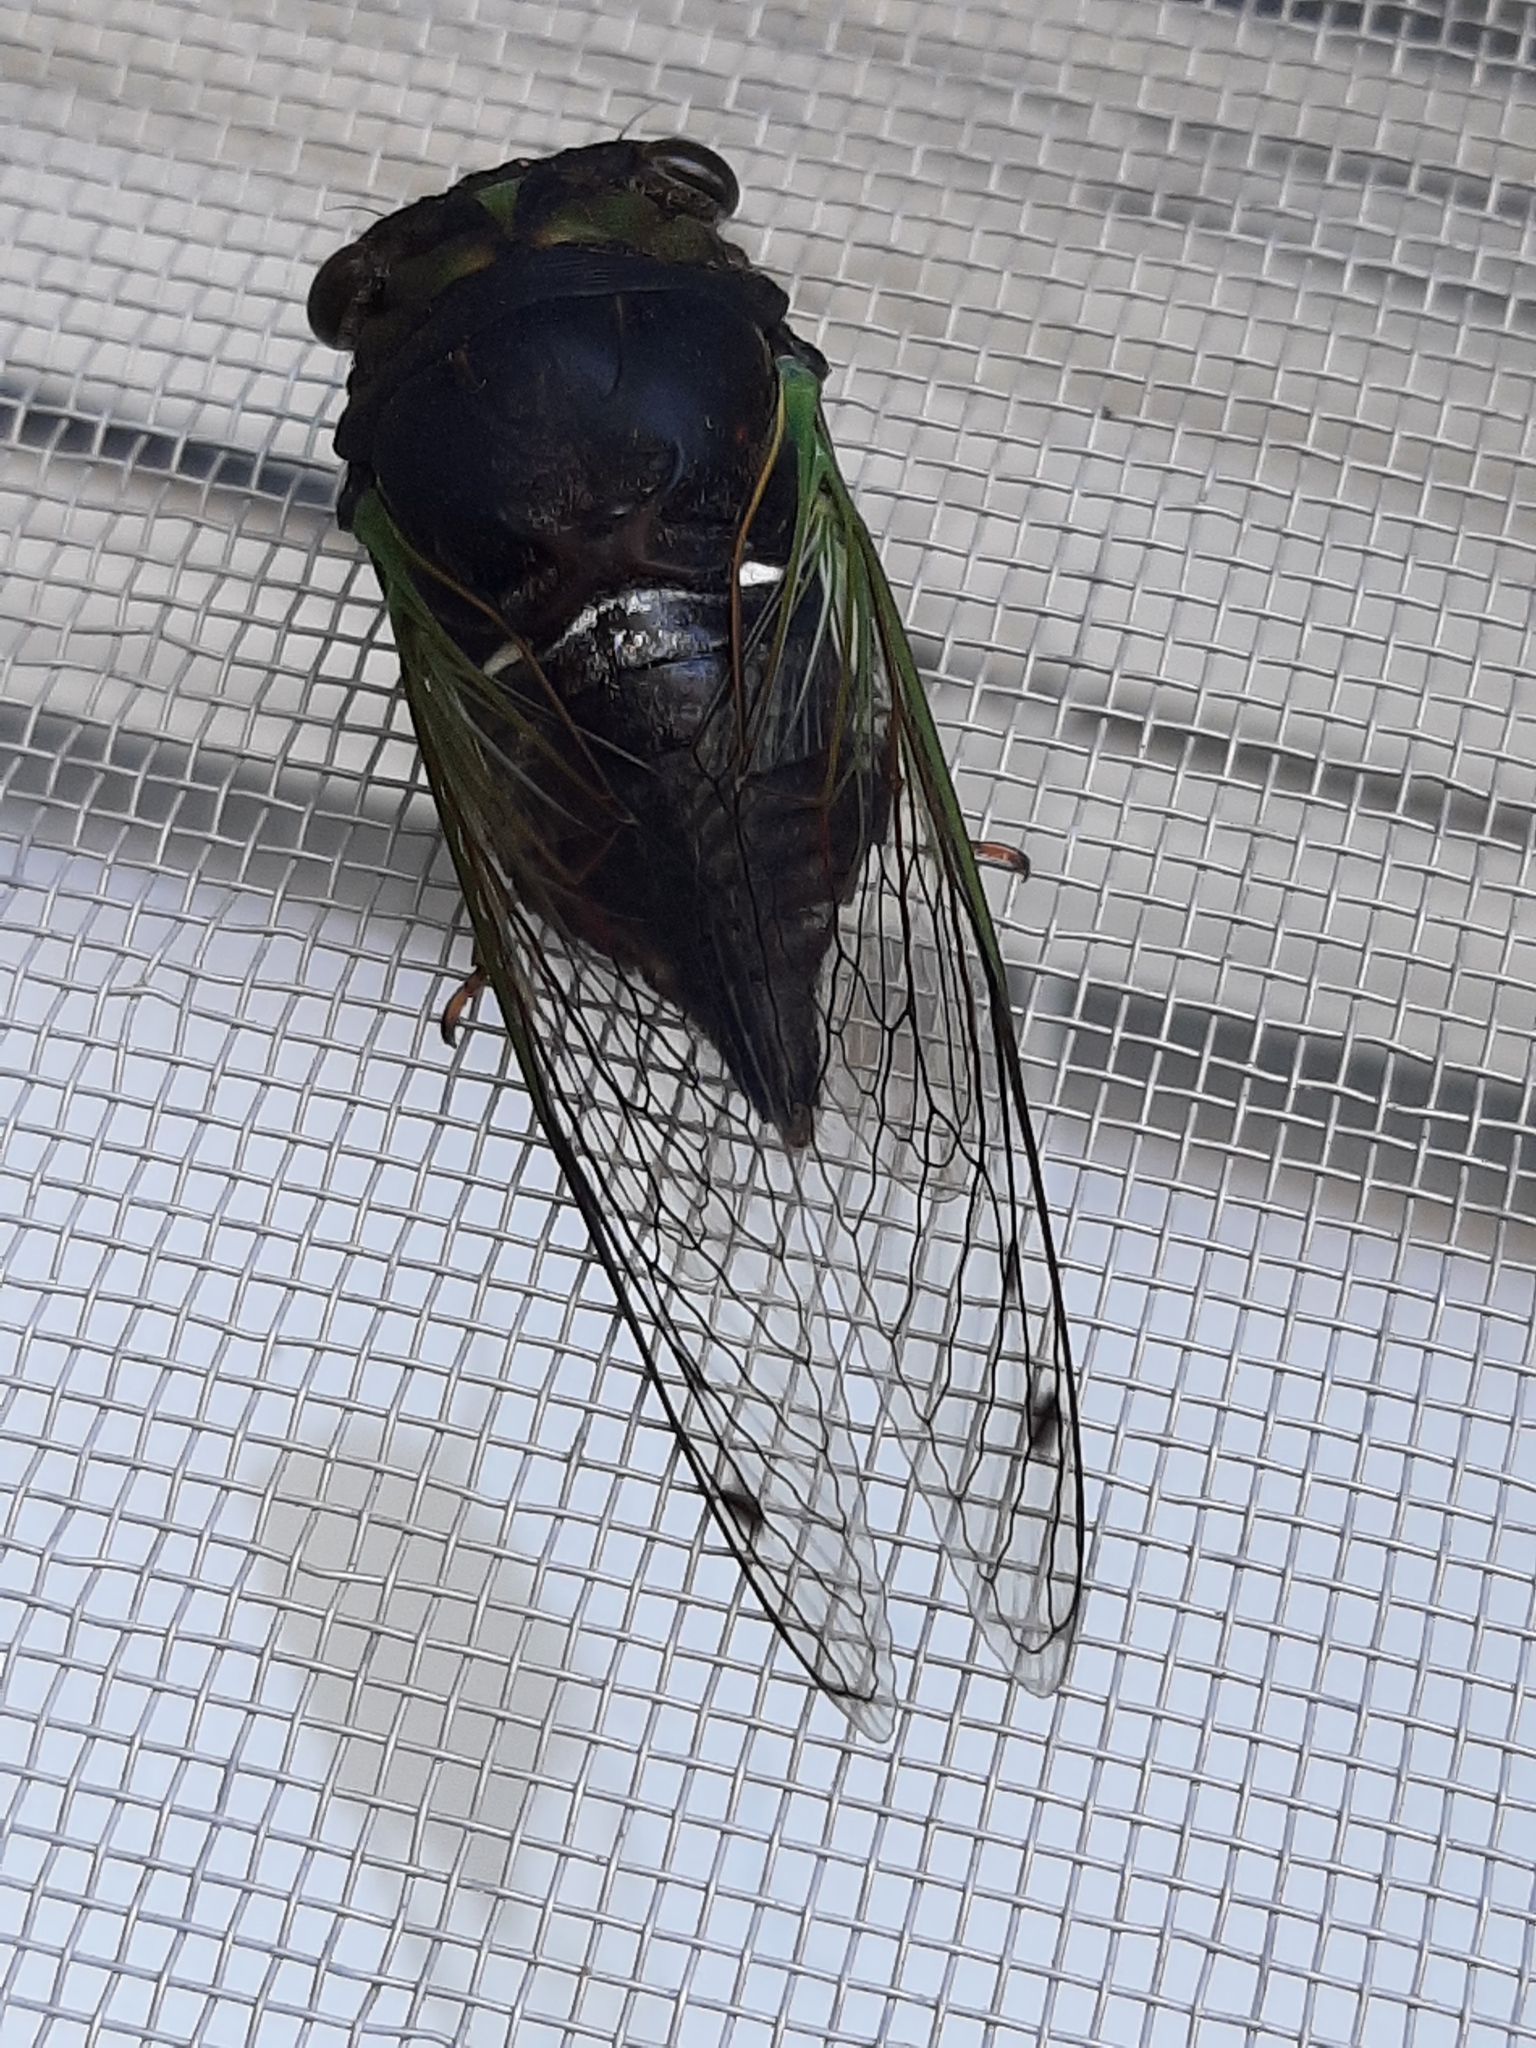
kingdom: Animalia
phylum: Arthropoda
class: Insecta
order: Hemiptera
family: Cicadidae
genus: Neotibicen
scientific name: Neotibicen tibicen
